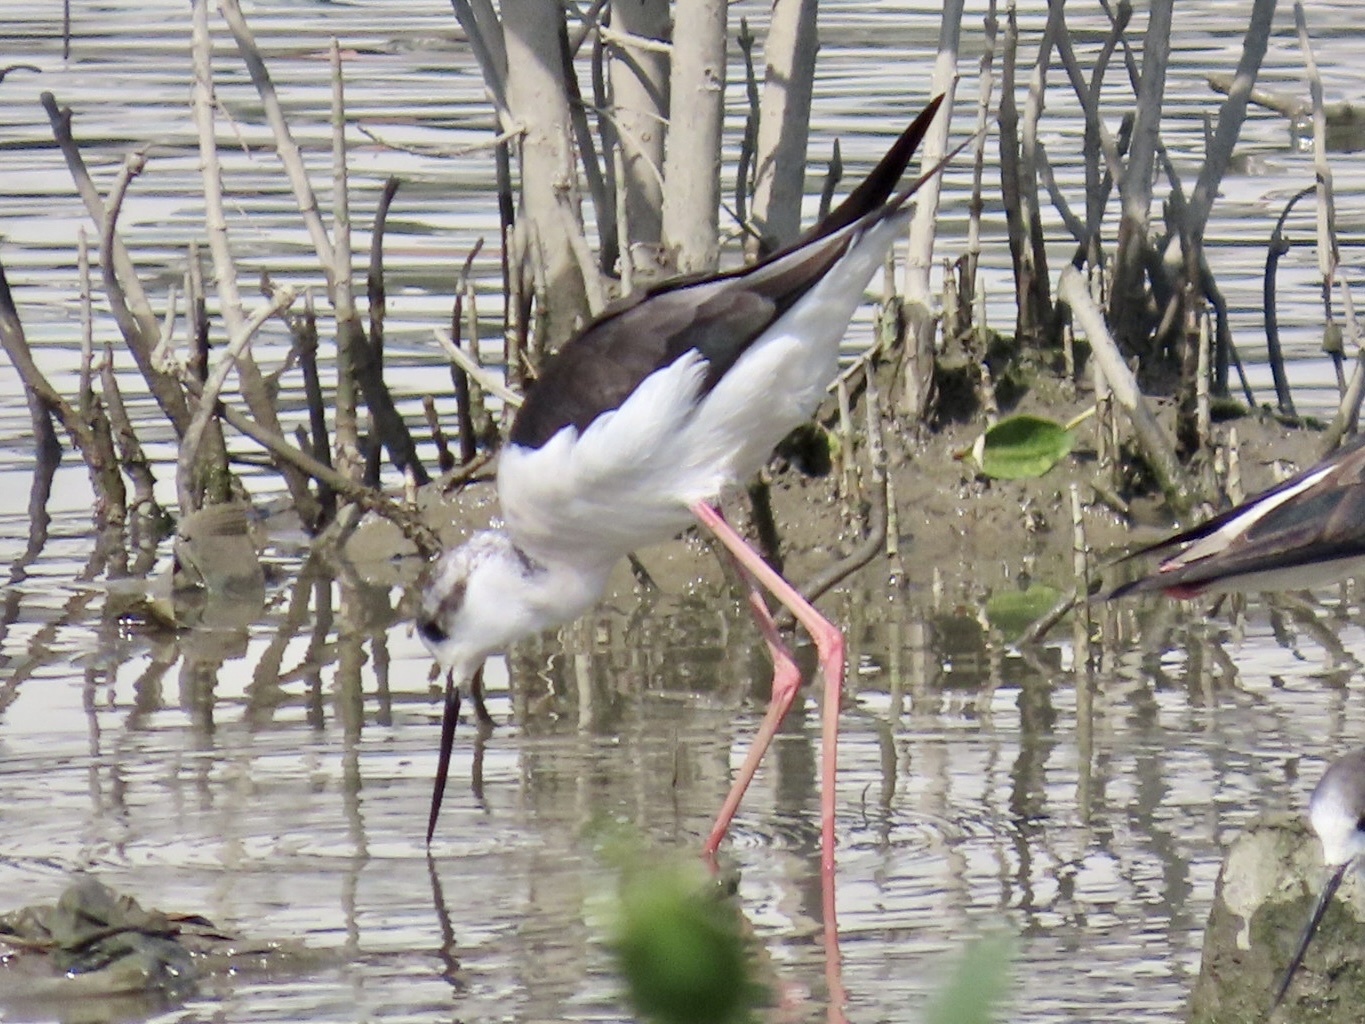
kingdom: Animalia
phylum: Chordata
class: Aves
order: Charadriiformes
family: Recurvirostridae
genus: Himantopus
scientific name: Himantopus himantopus
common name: Black-winged stilt
